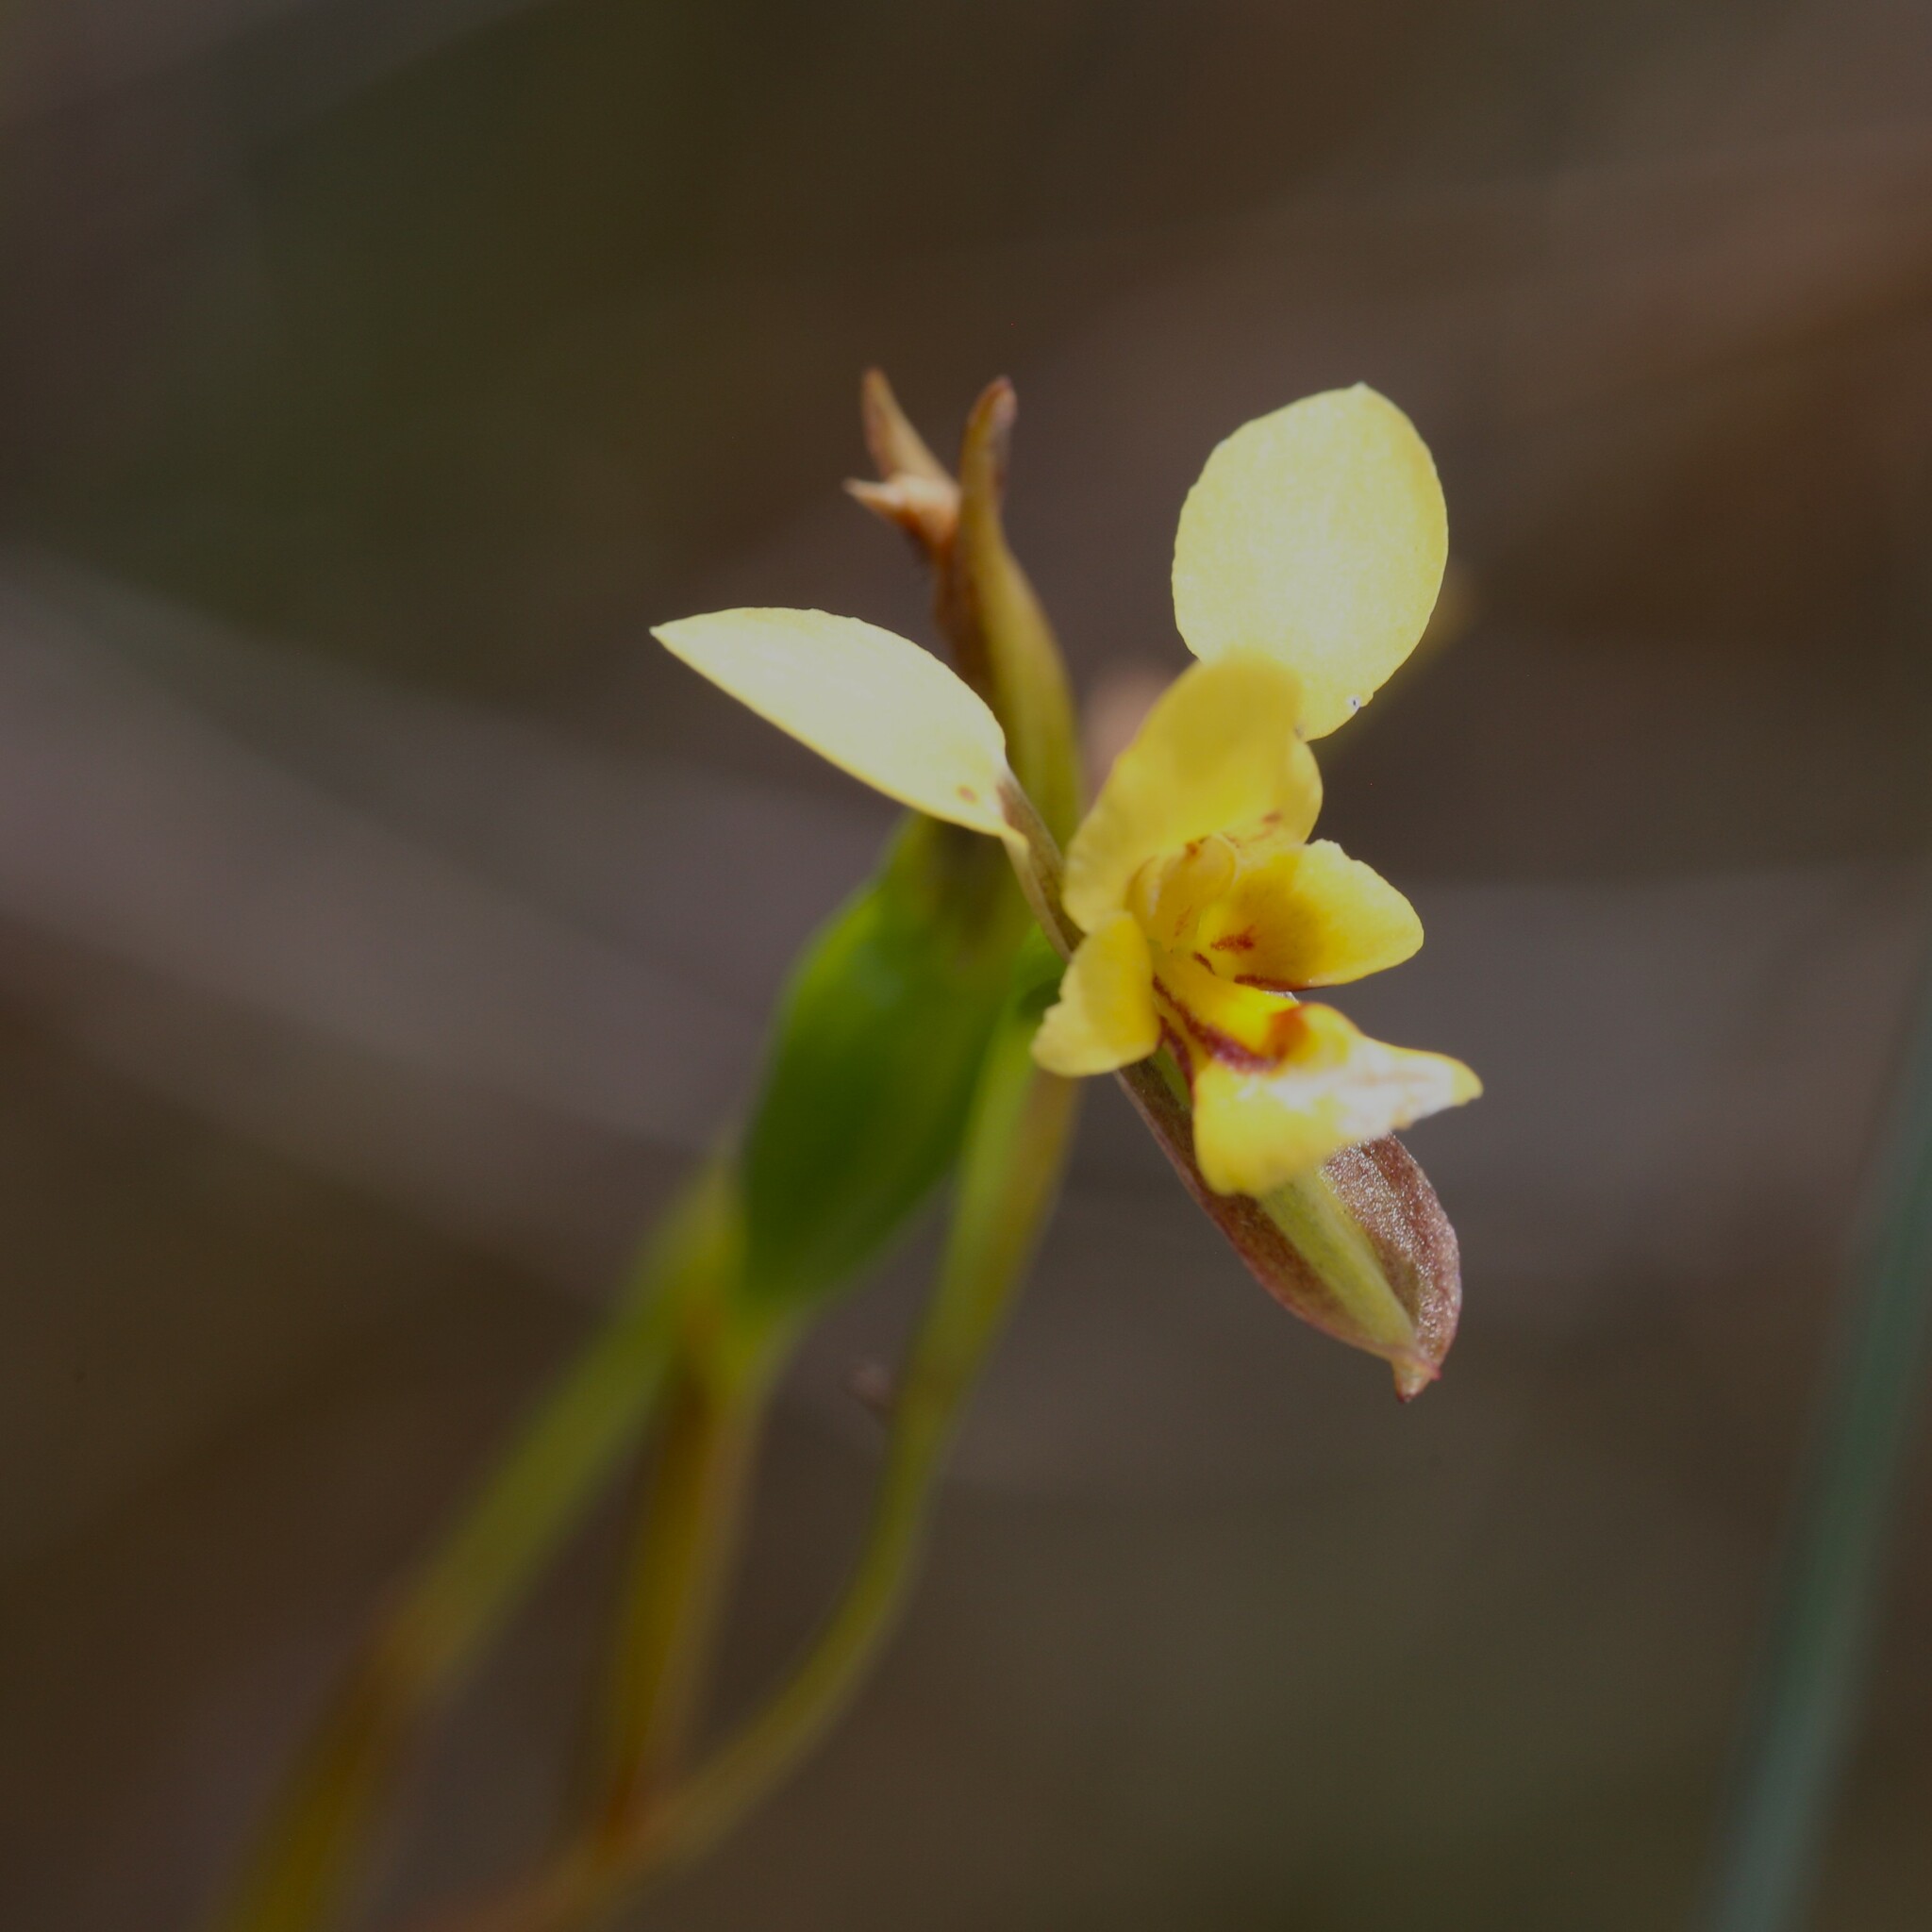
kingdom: Plantae
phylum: Tracheophyta
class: Liliopsida
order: Asparagales
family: Orchidaceae
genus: Diuris
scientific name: Diuris concinna
